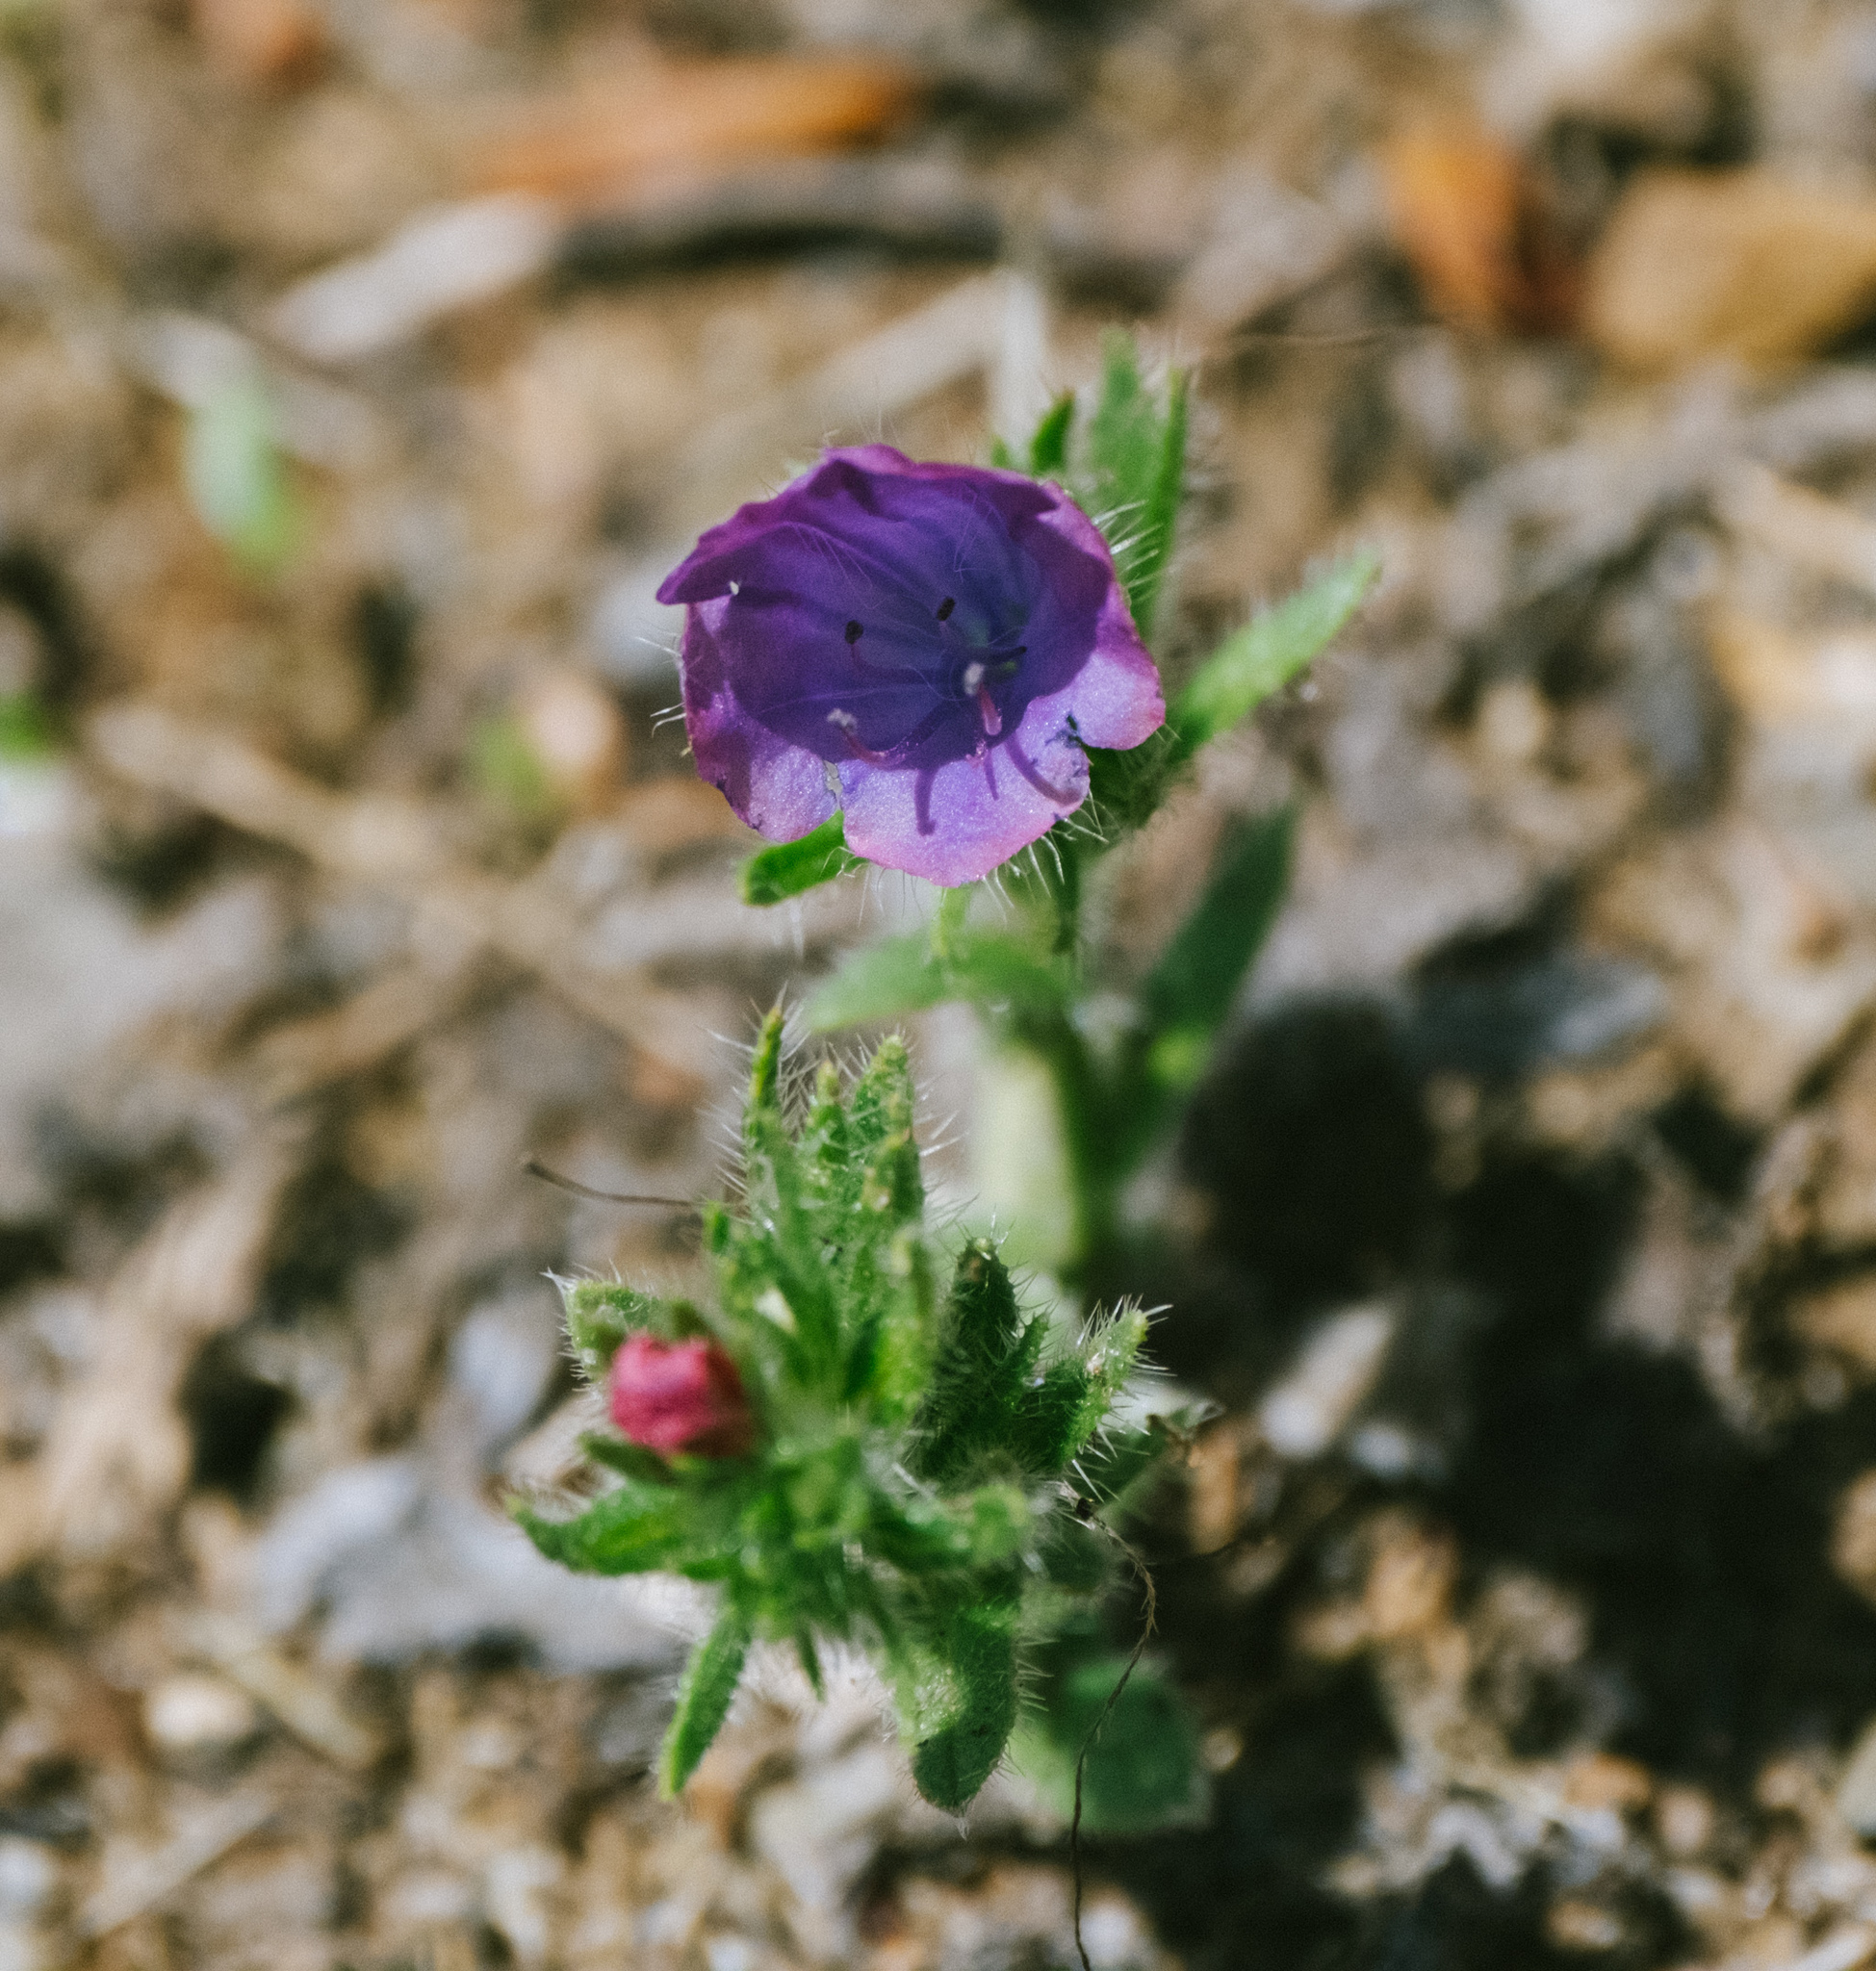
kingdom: Plantae
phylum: Tracheophyta
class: Magnoliopsida
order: Boraginales
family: Boraginaceae
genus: Echium
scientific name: Echium plantagineum
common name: Purple viper's-bugloss
